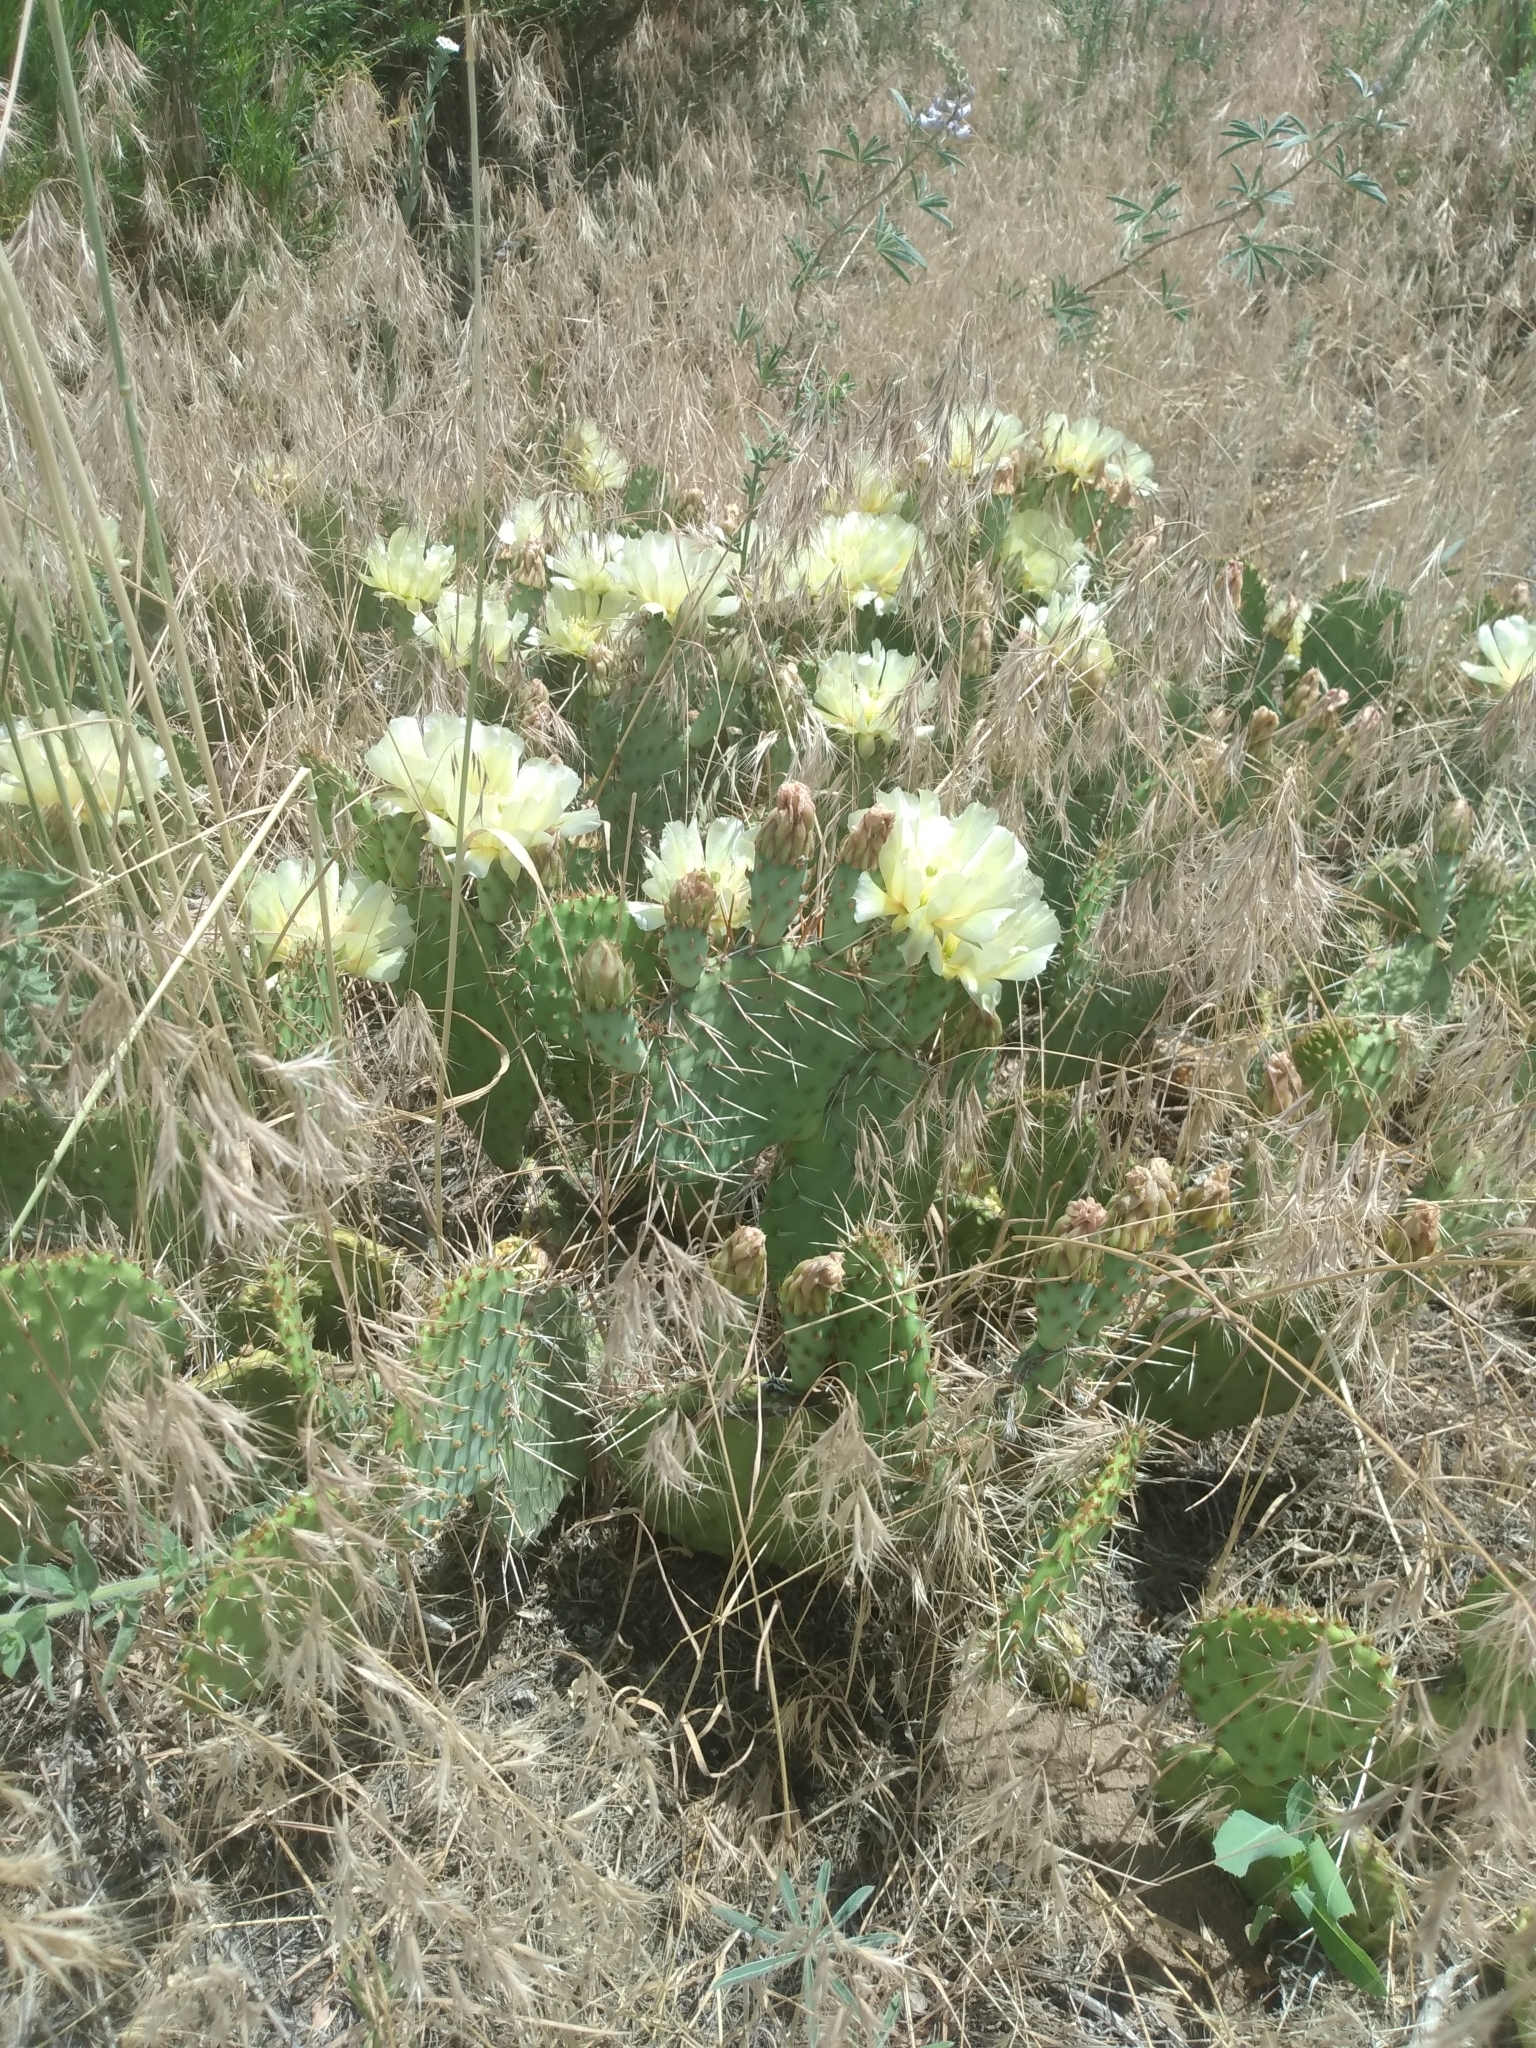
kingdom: Plantae
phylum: Tracheophyta
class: Magnoliopsida
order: Caryophyllales
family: Cactaceae
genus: Opuntia
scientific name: Opuntia polyacantha
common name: Plains prickly-pear
